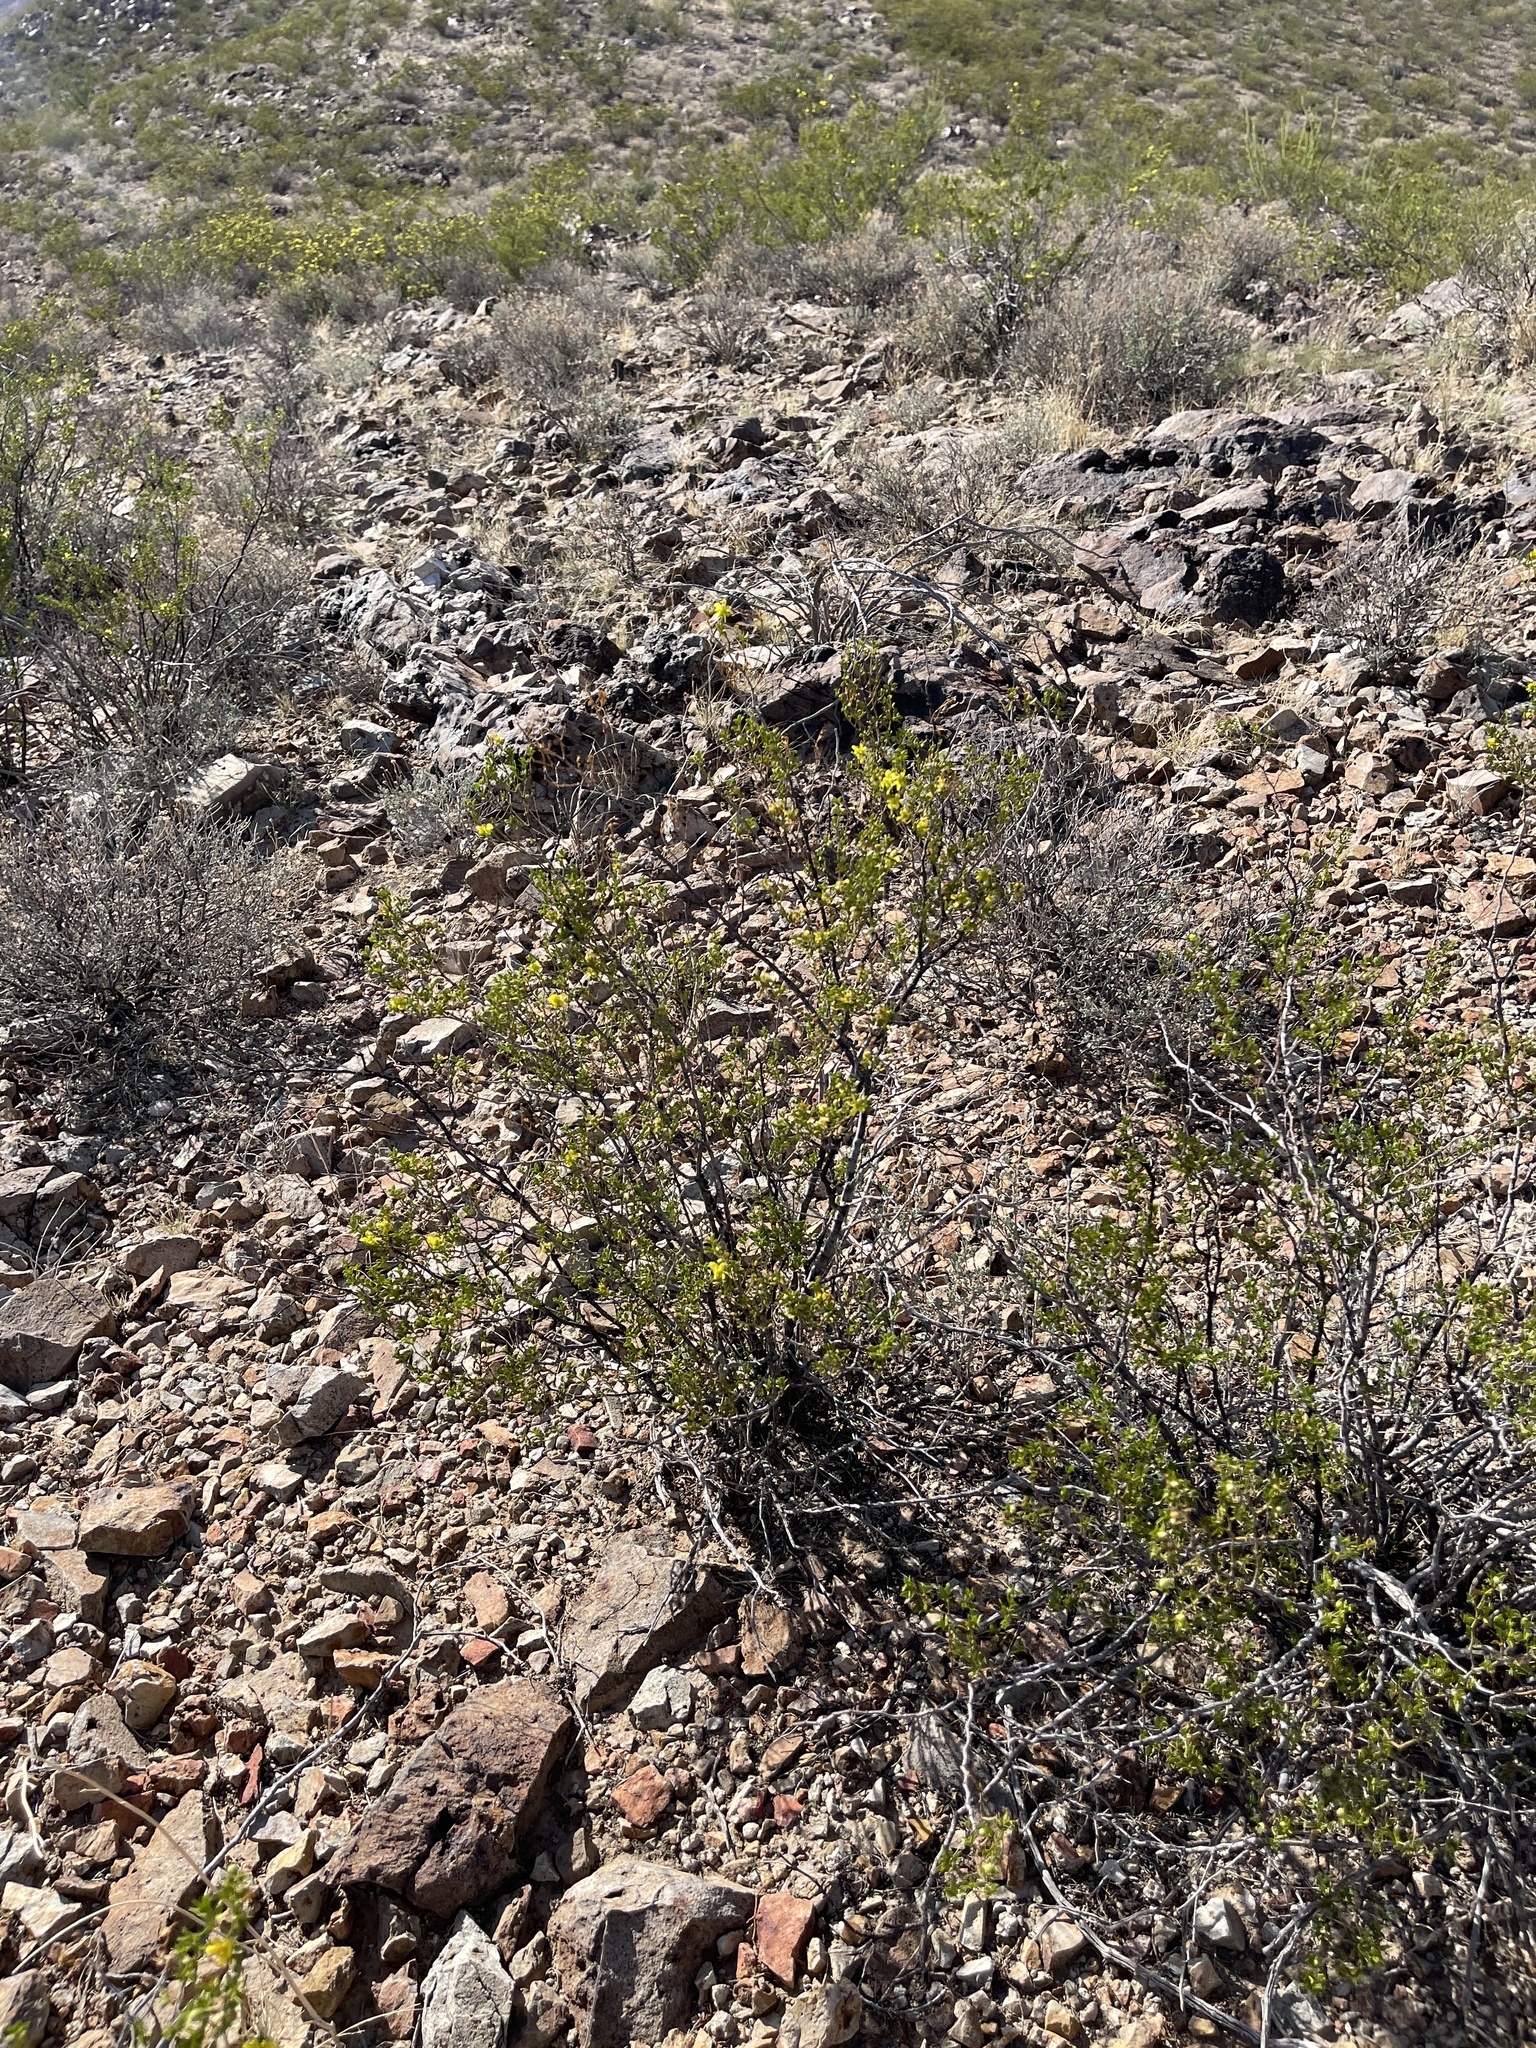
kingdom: Plantae
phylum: Tracheophyta
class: Magnoliopsida
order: Zygophyllales
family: Zygophyllaceae
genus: Larrea
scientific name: Larrea tridentata
